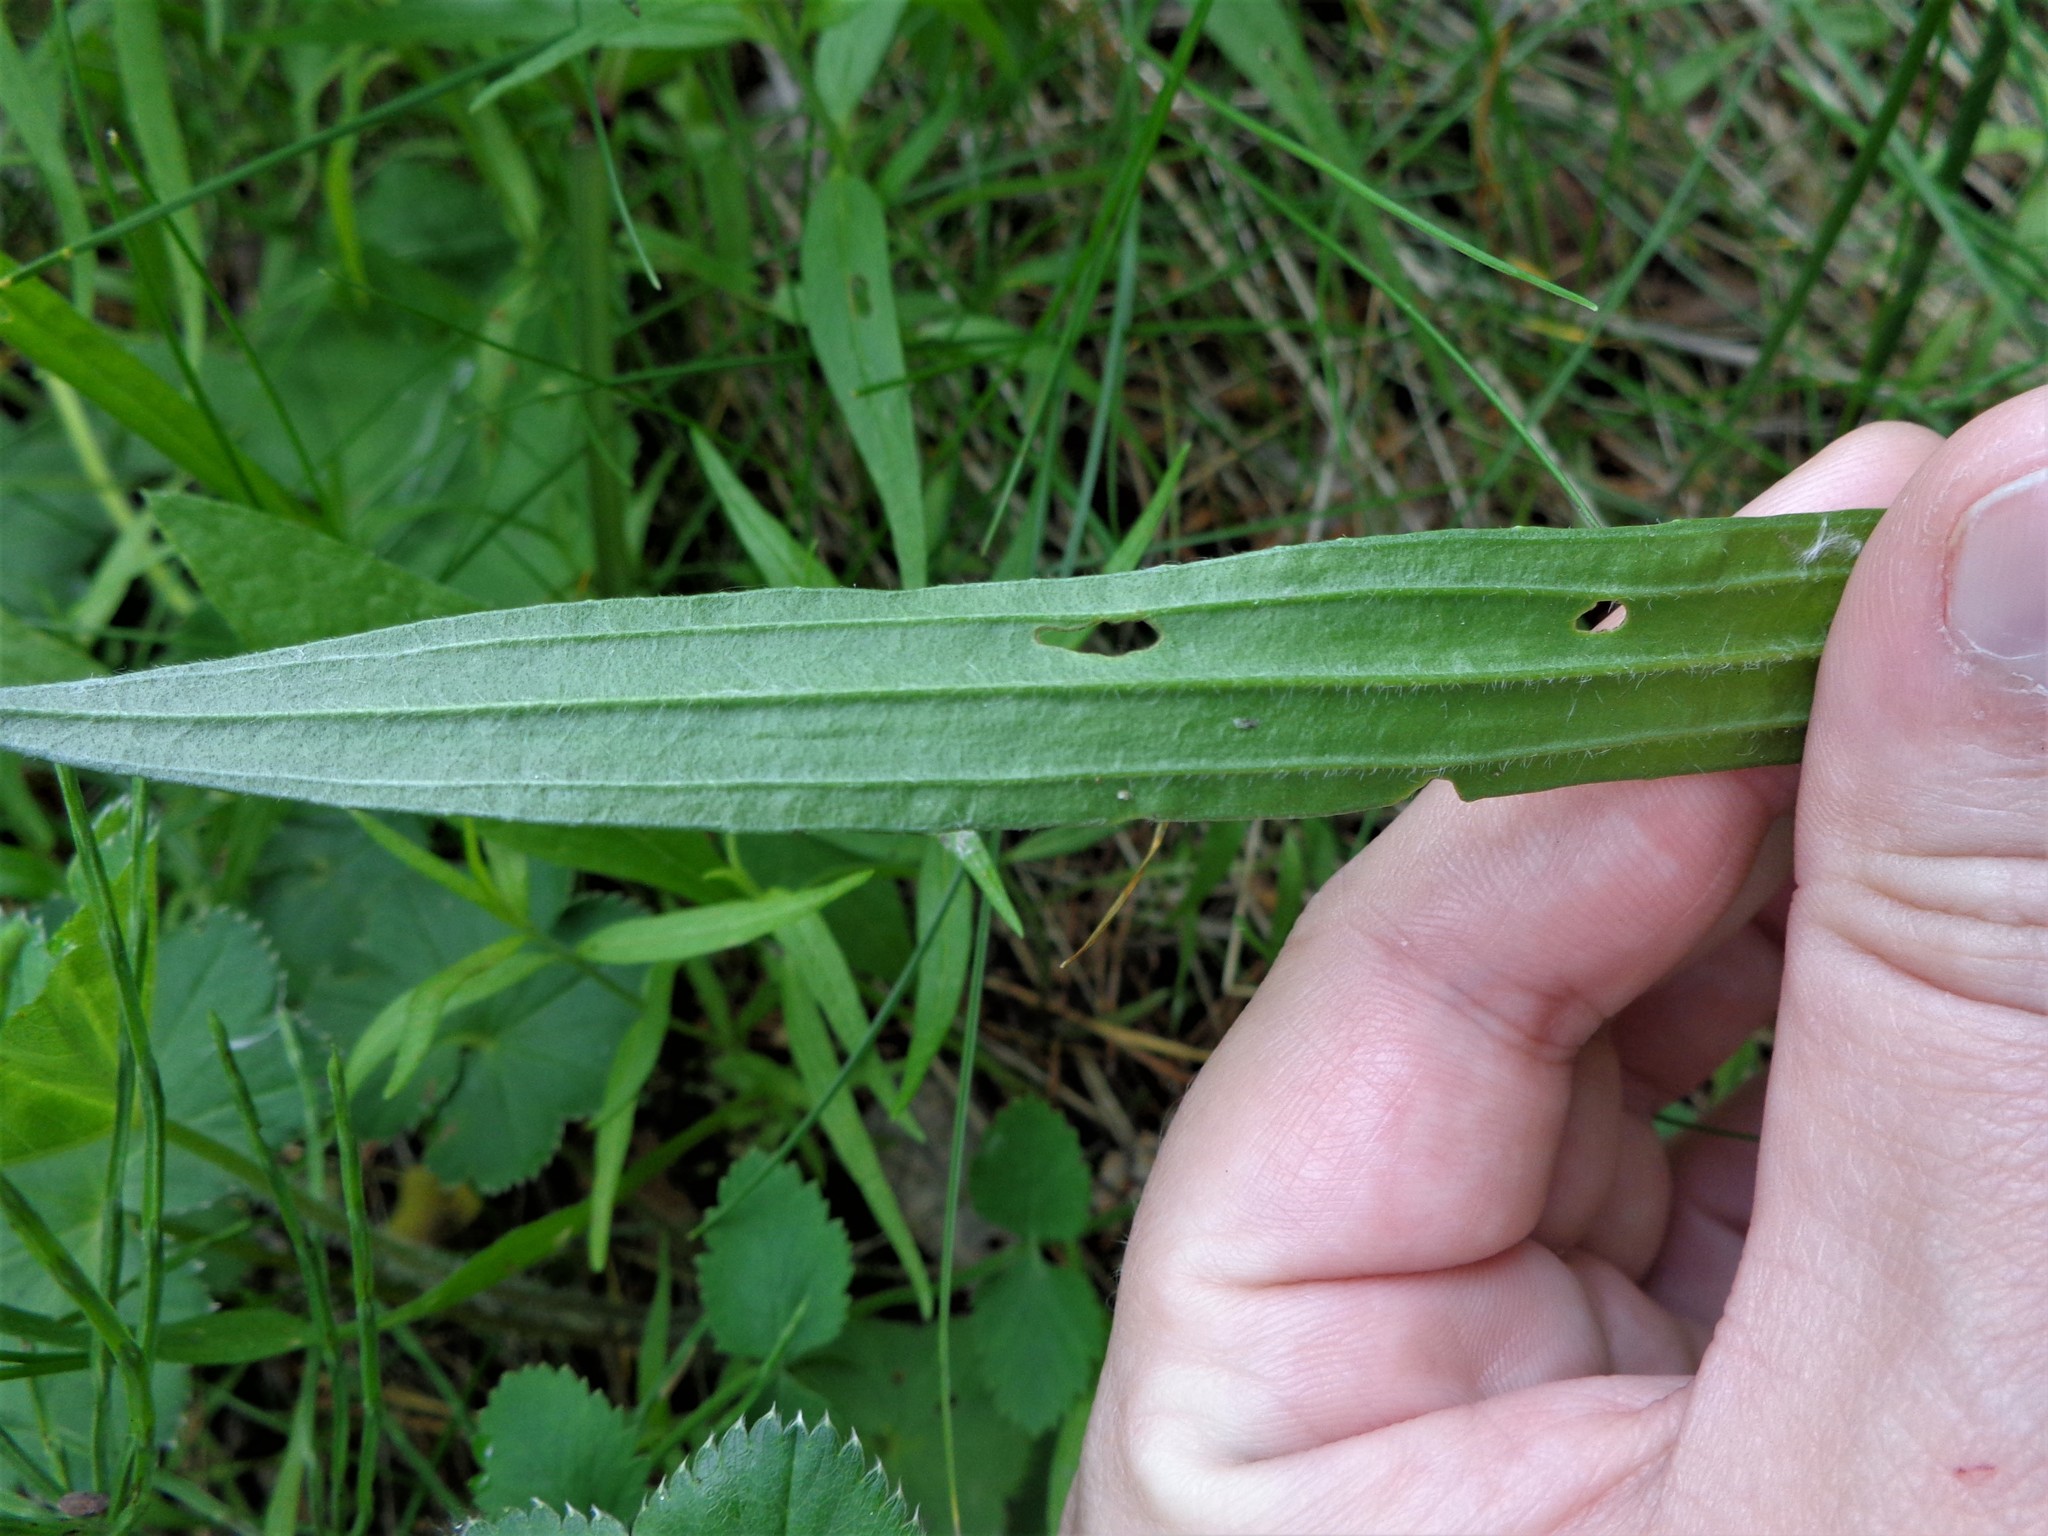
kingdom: Plantae
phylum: Tracheophyta
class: Magnoliopsida
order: Lamiales
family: Plantaginaceae
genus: Plantago
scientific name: Plantago lanceolata
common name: Ribwort plantain
